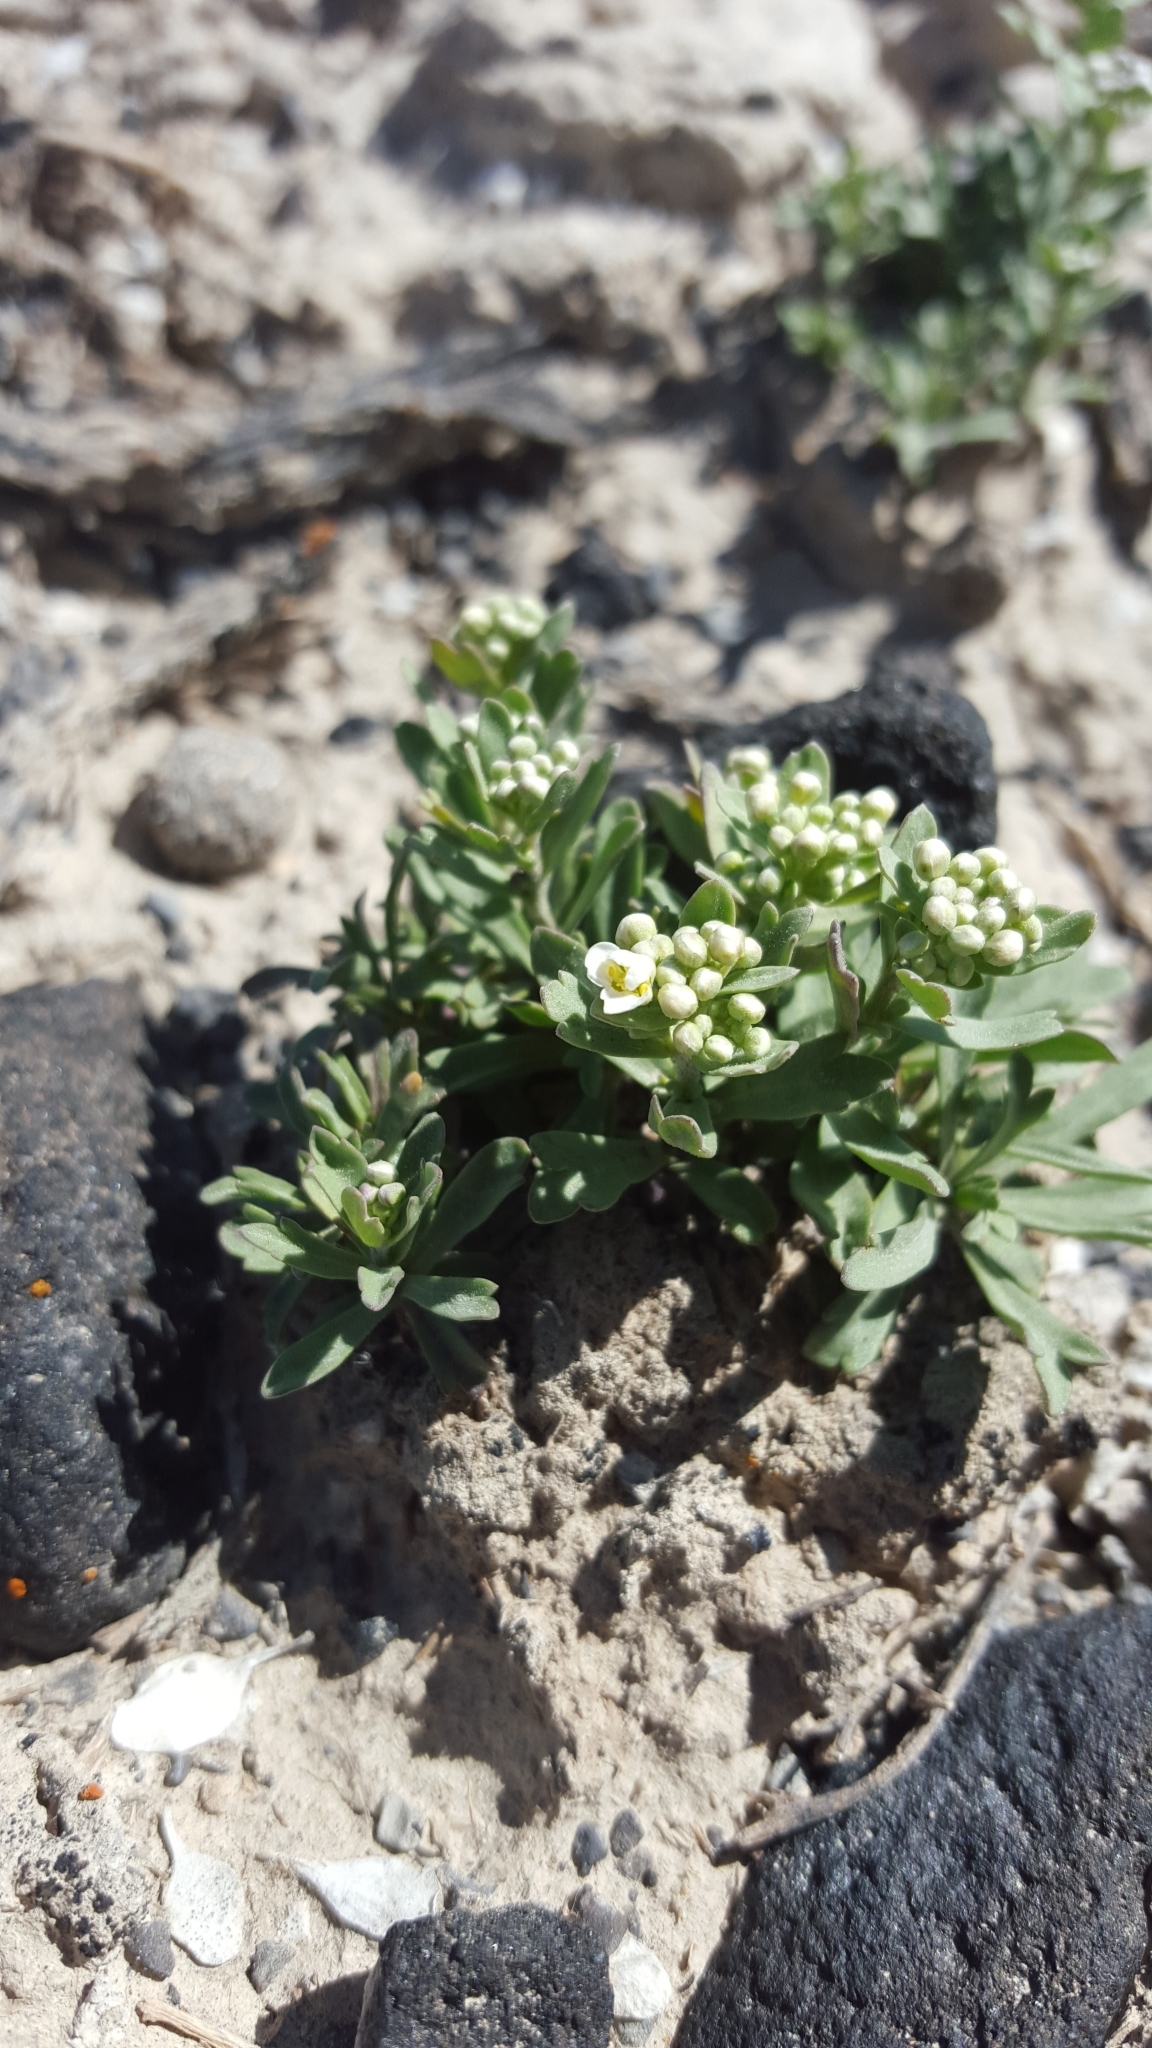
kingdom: Plantae
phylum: Tracheophyta
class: Magnoliopsida
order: Santalales
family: Comandraceae
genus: Comandra
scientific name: Comandra umbellata
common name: Bastard toadflax
